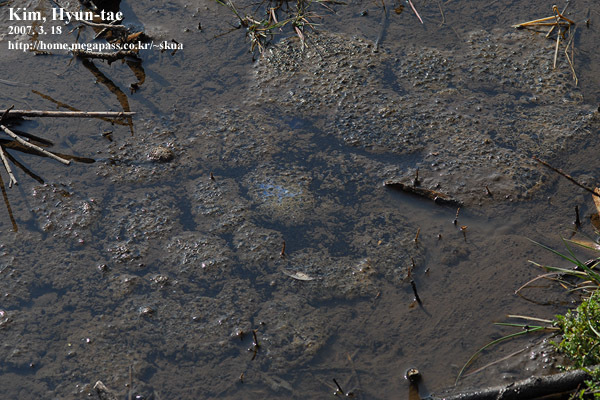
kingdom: Animalia
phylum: Chordata
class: Amphibia
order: Anura
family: Ranidae
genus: Rana
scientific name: Rana uenoi
